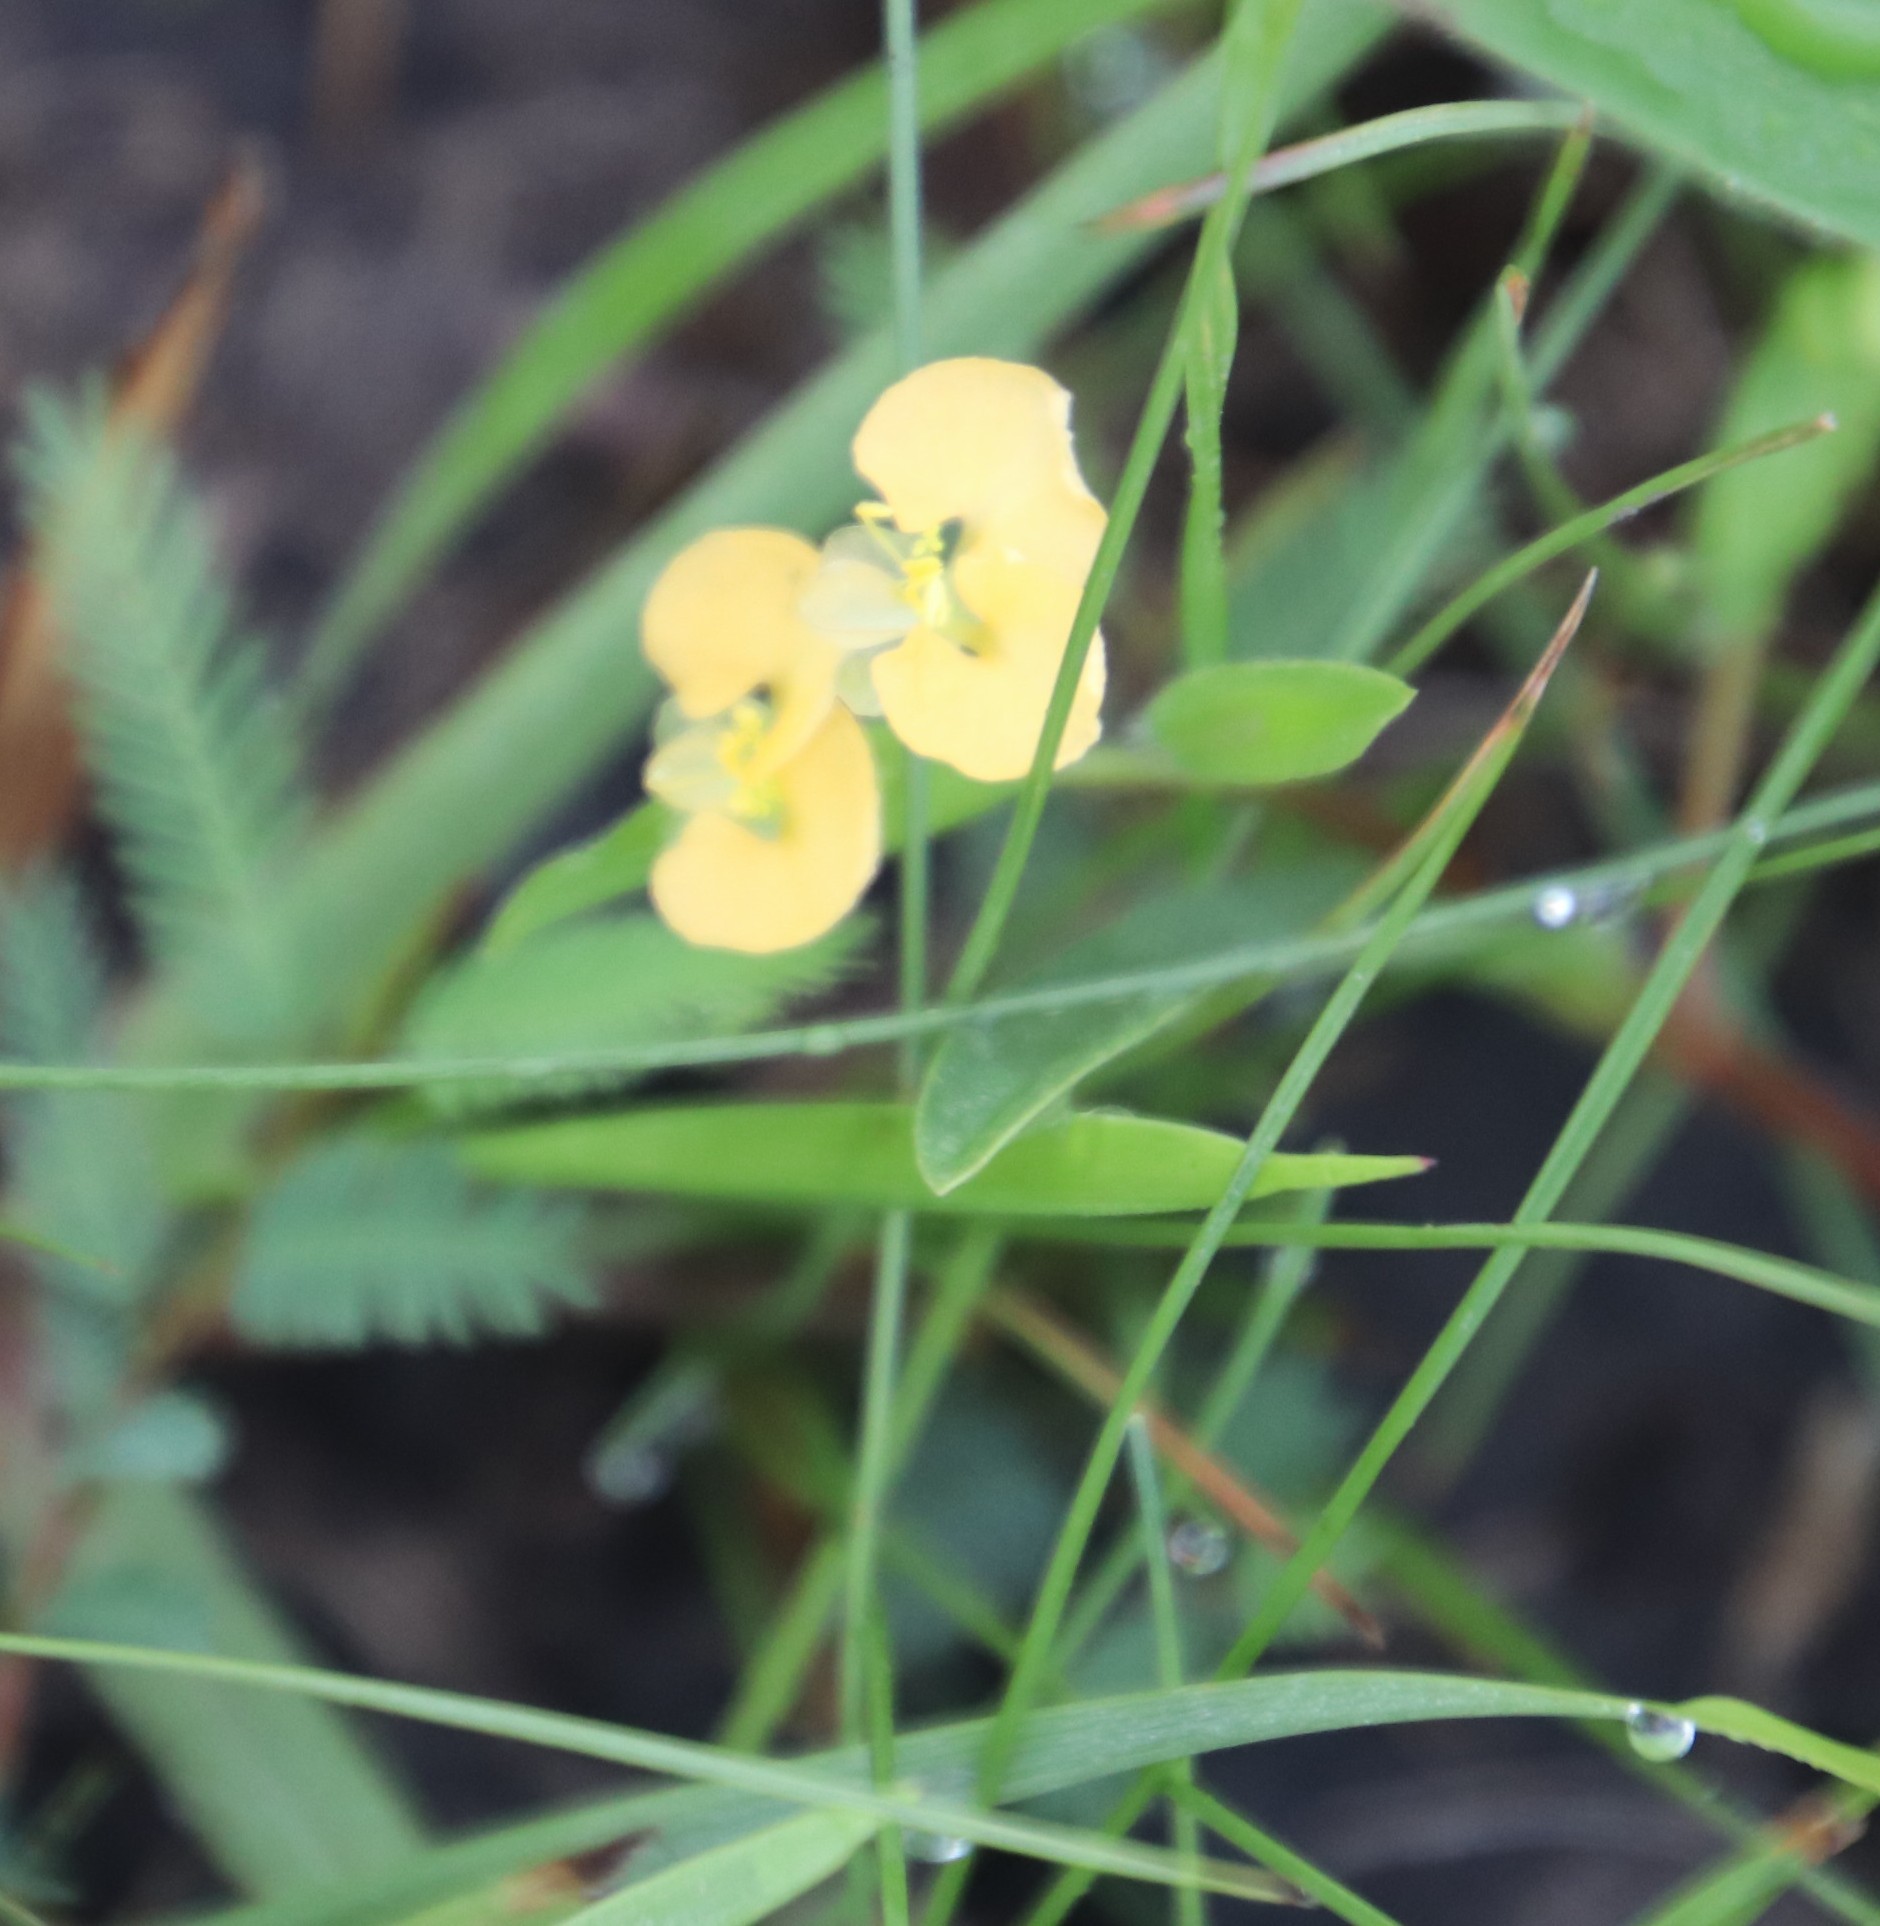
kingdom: Plantae
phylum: Tracheophyta
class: Liliopsida
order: Commelinales
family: Commelinaceae
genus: Commelina
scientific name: Commelina africana
